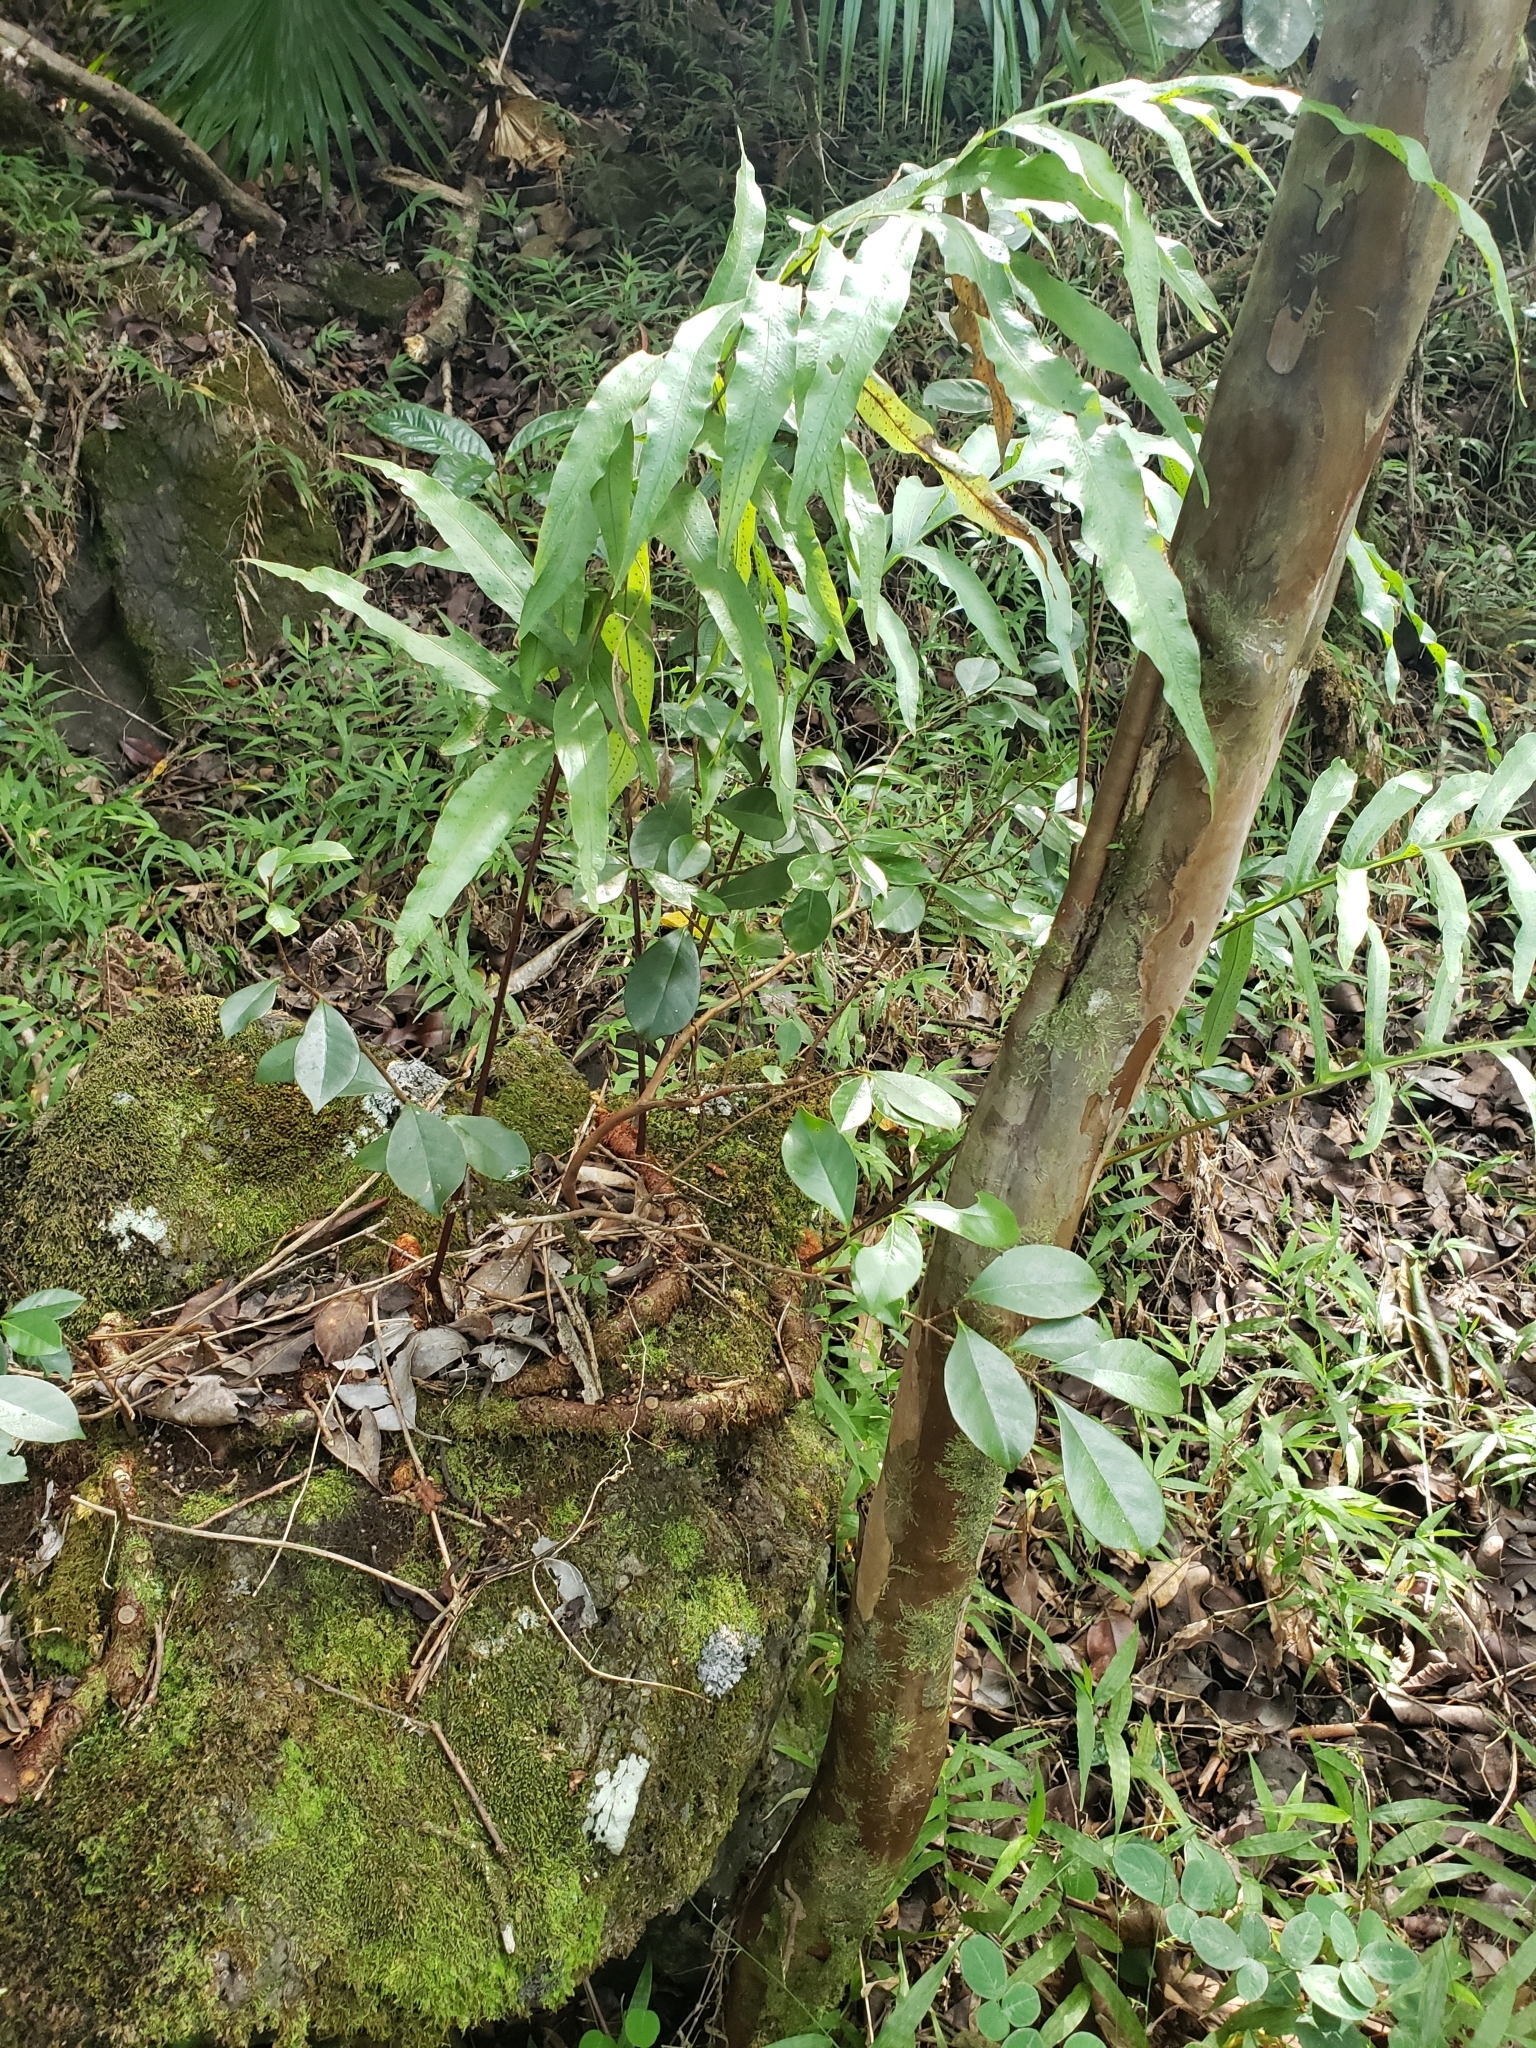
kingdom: Plantae
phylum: Tracheophyta
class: Polypodiopsida
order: Polypodiales
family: Polypodiaceae
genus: Phlebodium
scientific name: Phlebodium aureum
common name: Gold-foot fern
